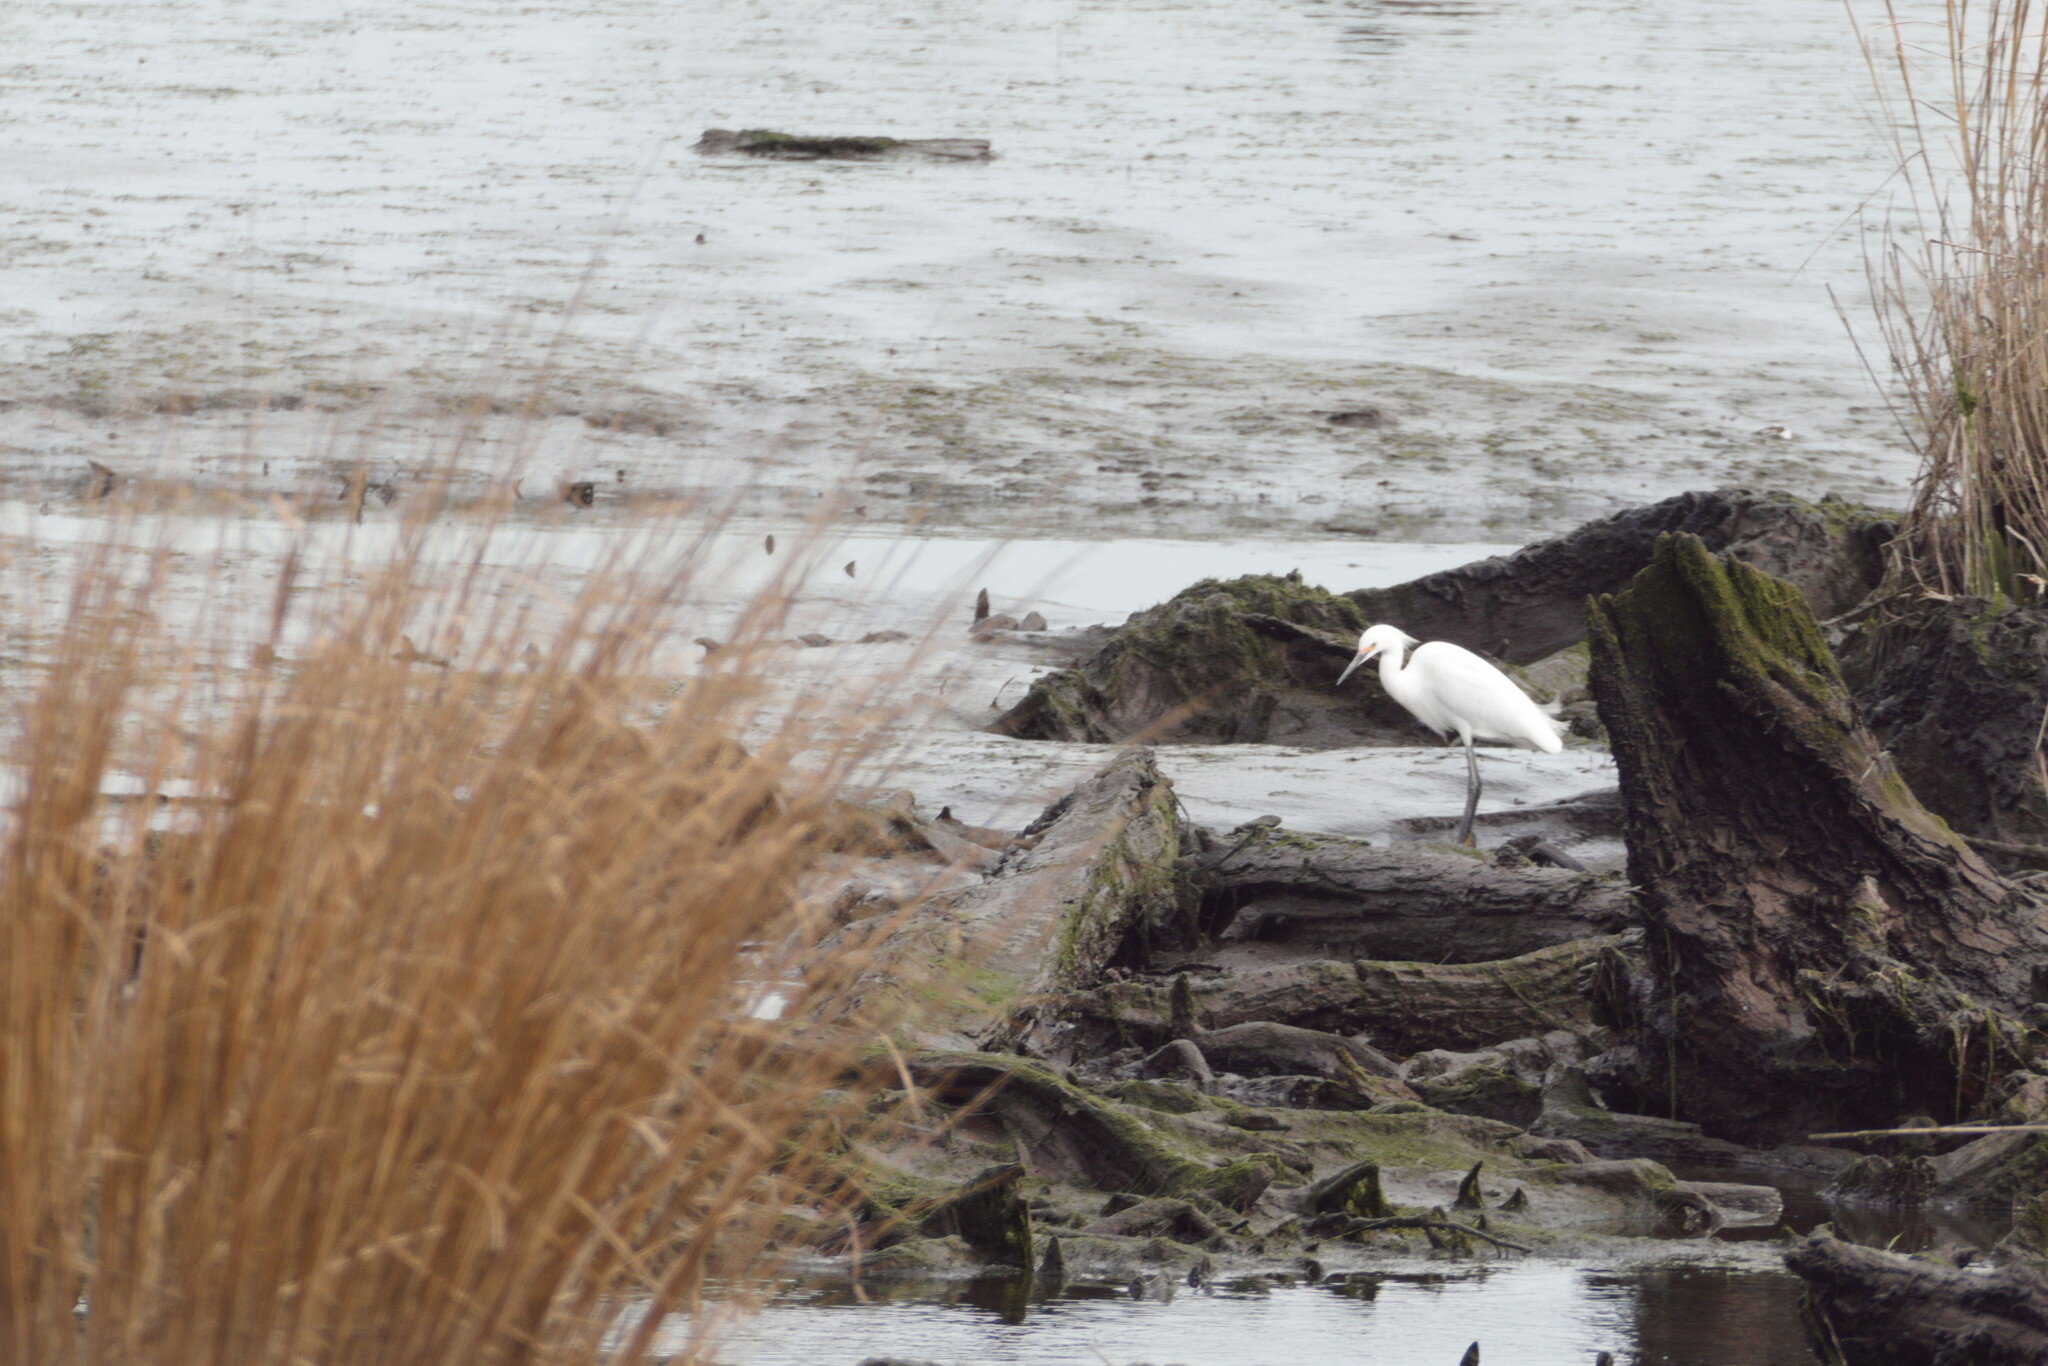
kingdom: Animalia
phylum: Chordata
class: Aves
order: Pelecaniformes
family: Ardeidae
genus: Egretta
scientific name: Egretta thula
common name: Snowy egret
